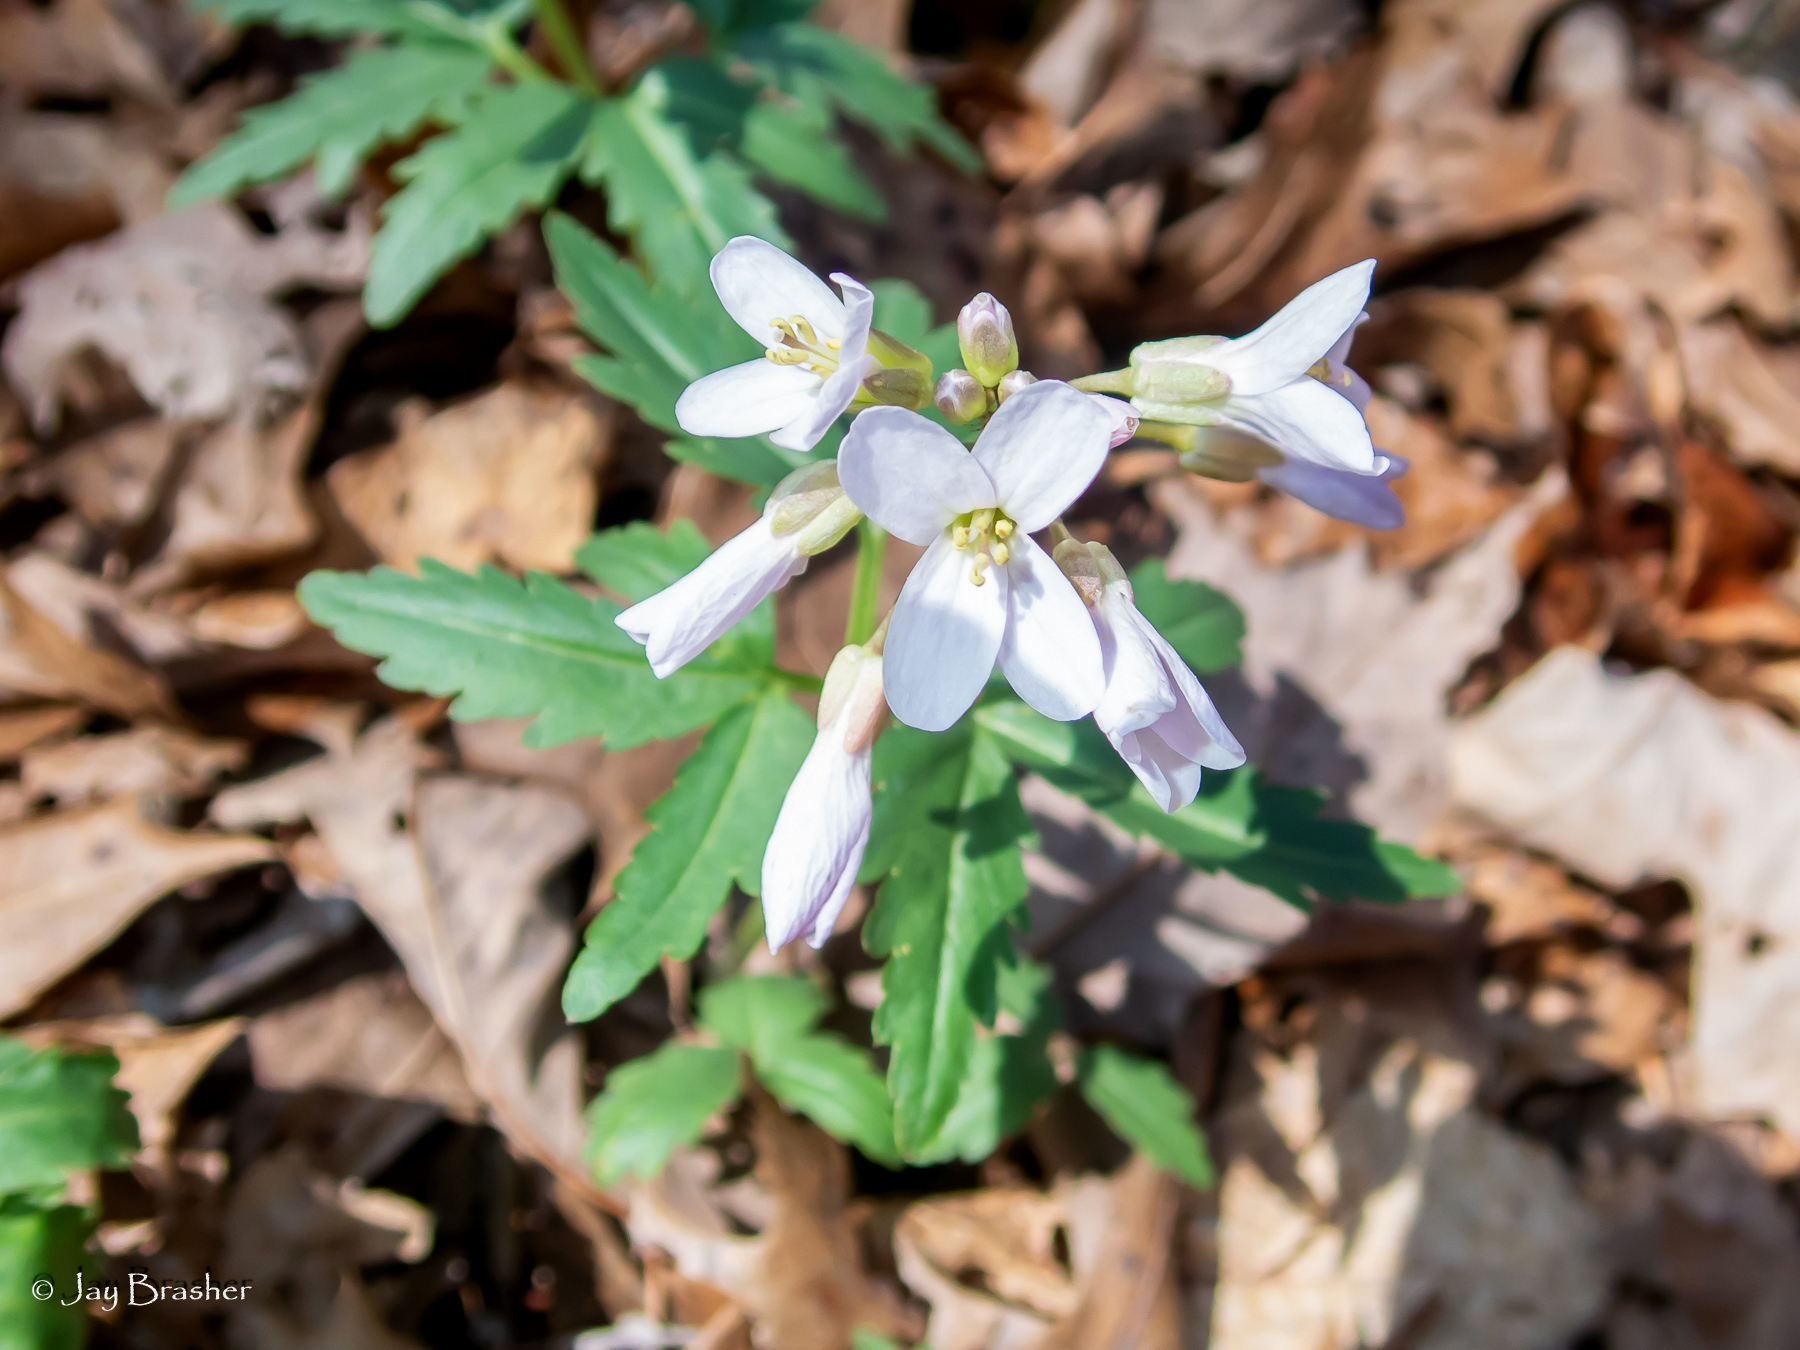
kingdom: Plantae
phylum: Tracheophyta
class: Magnoliopsida
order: Brassicales
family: Brassicaceae
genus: Cardamine
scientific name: Cardamine concatenata
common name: Cut-leaf toothcup
